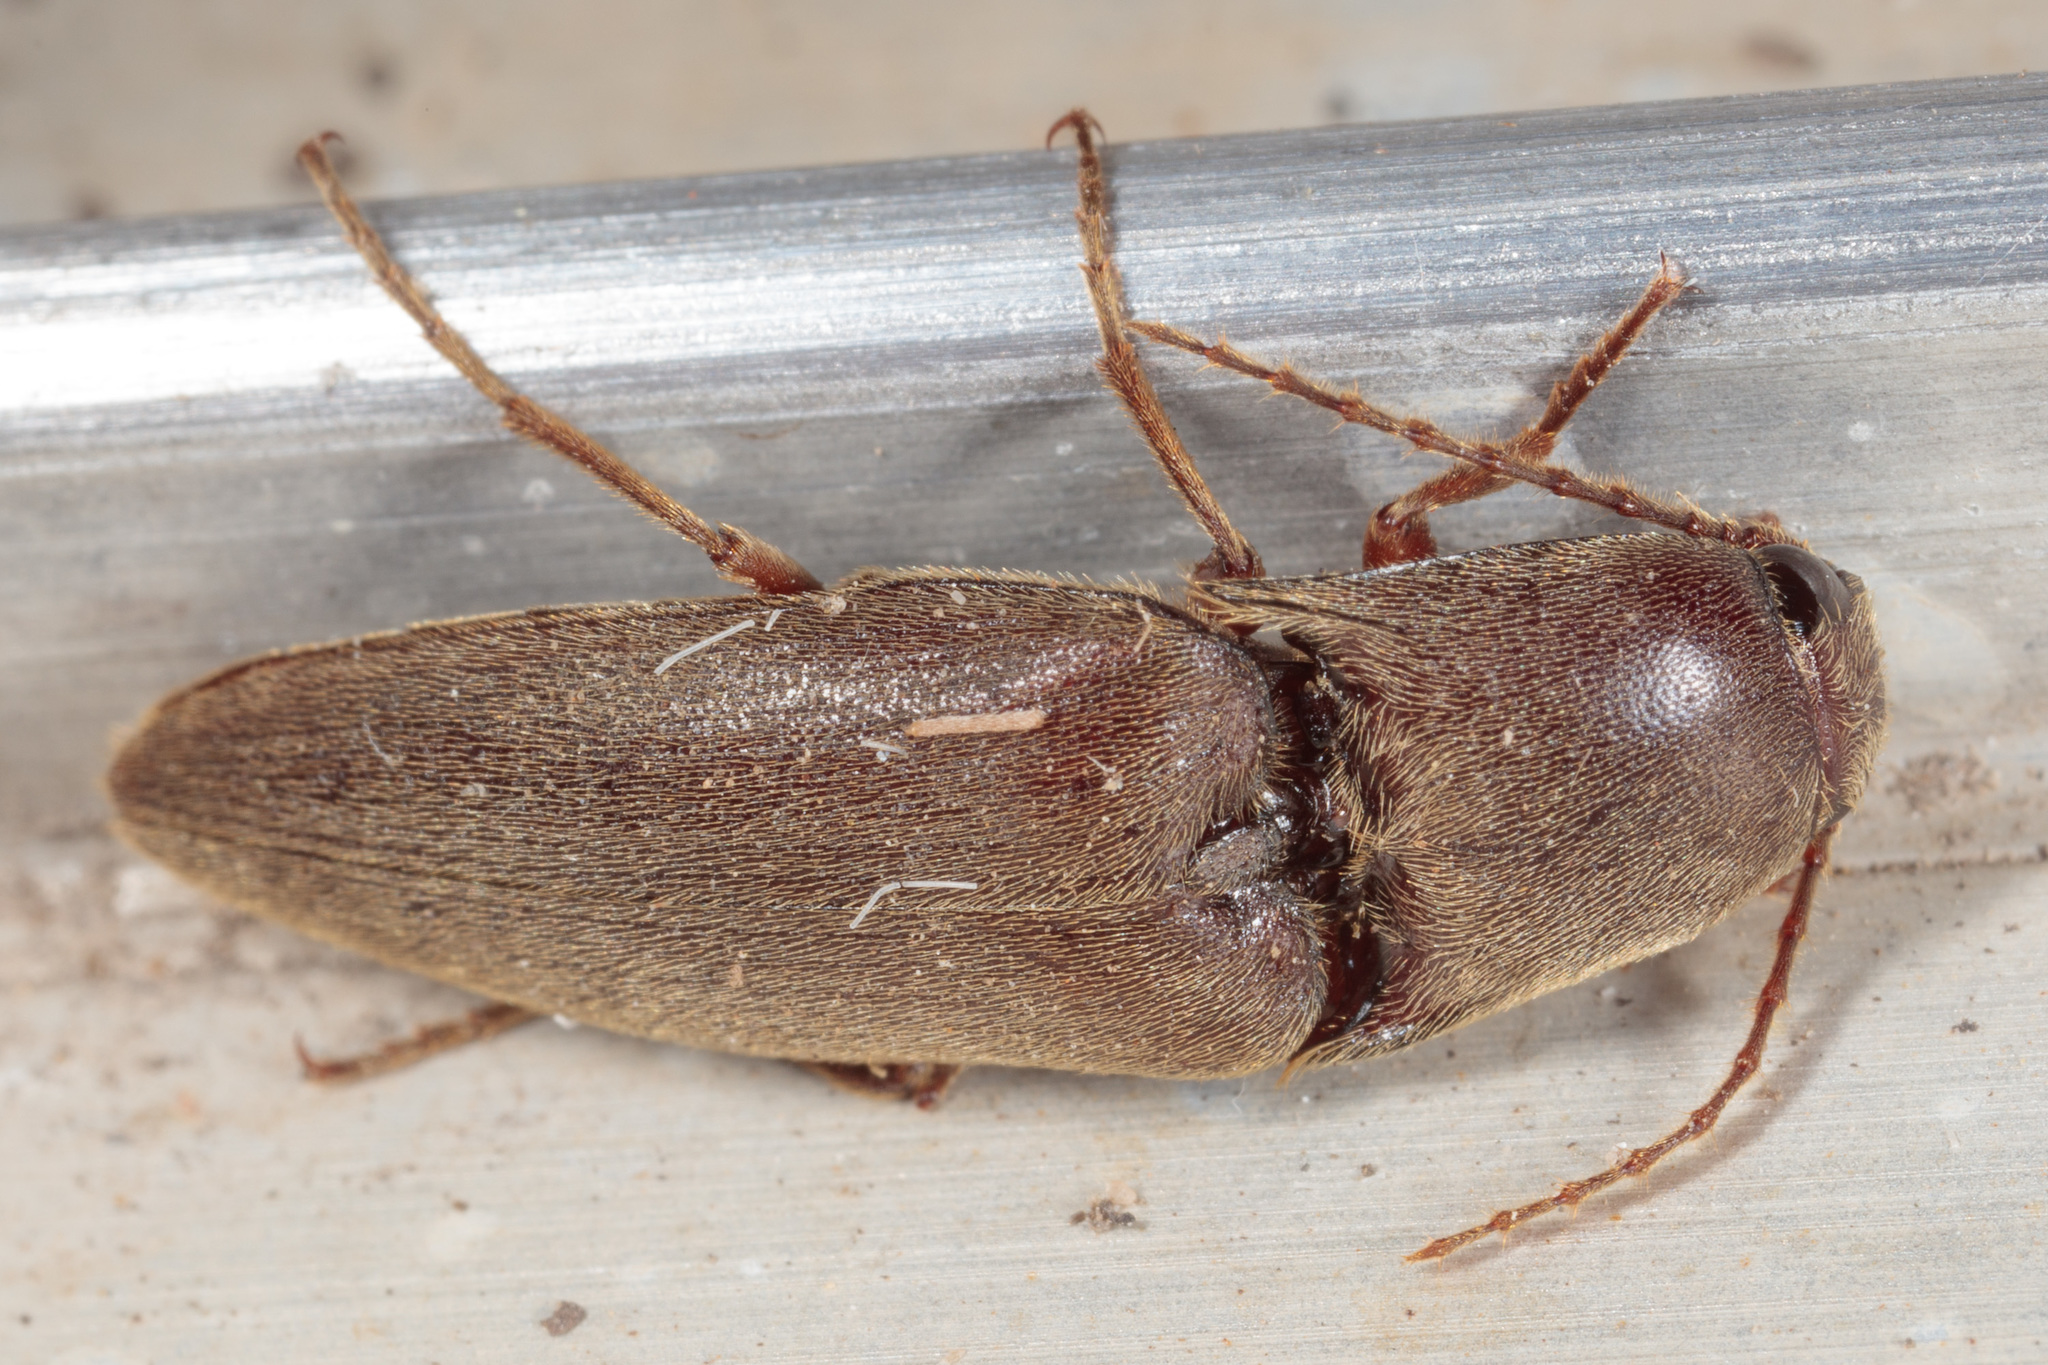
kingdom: Animalia
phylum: Arthropoda
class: Insecta
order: Coleoptera
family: Elateridae
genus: Diplostethus
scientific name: Diplostethus
